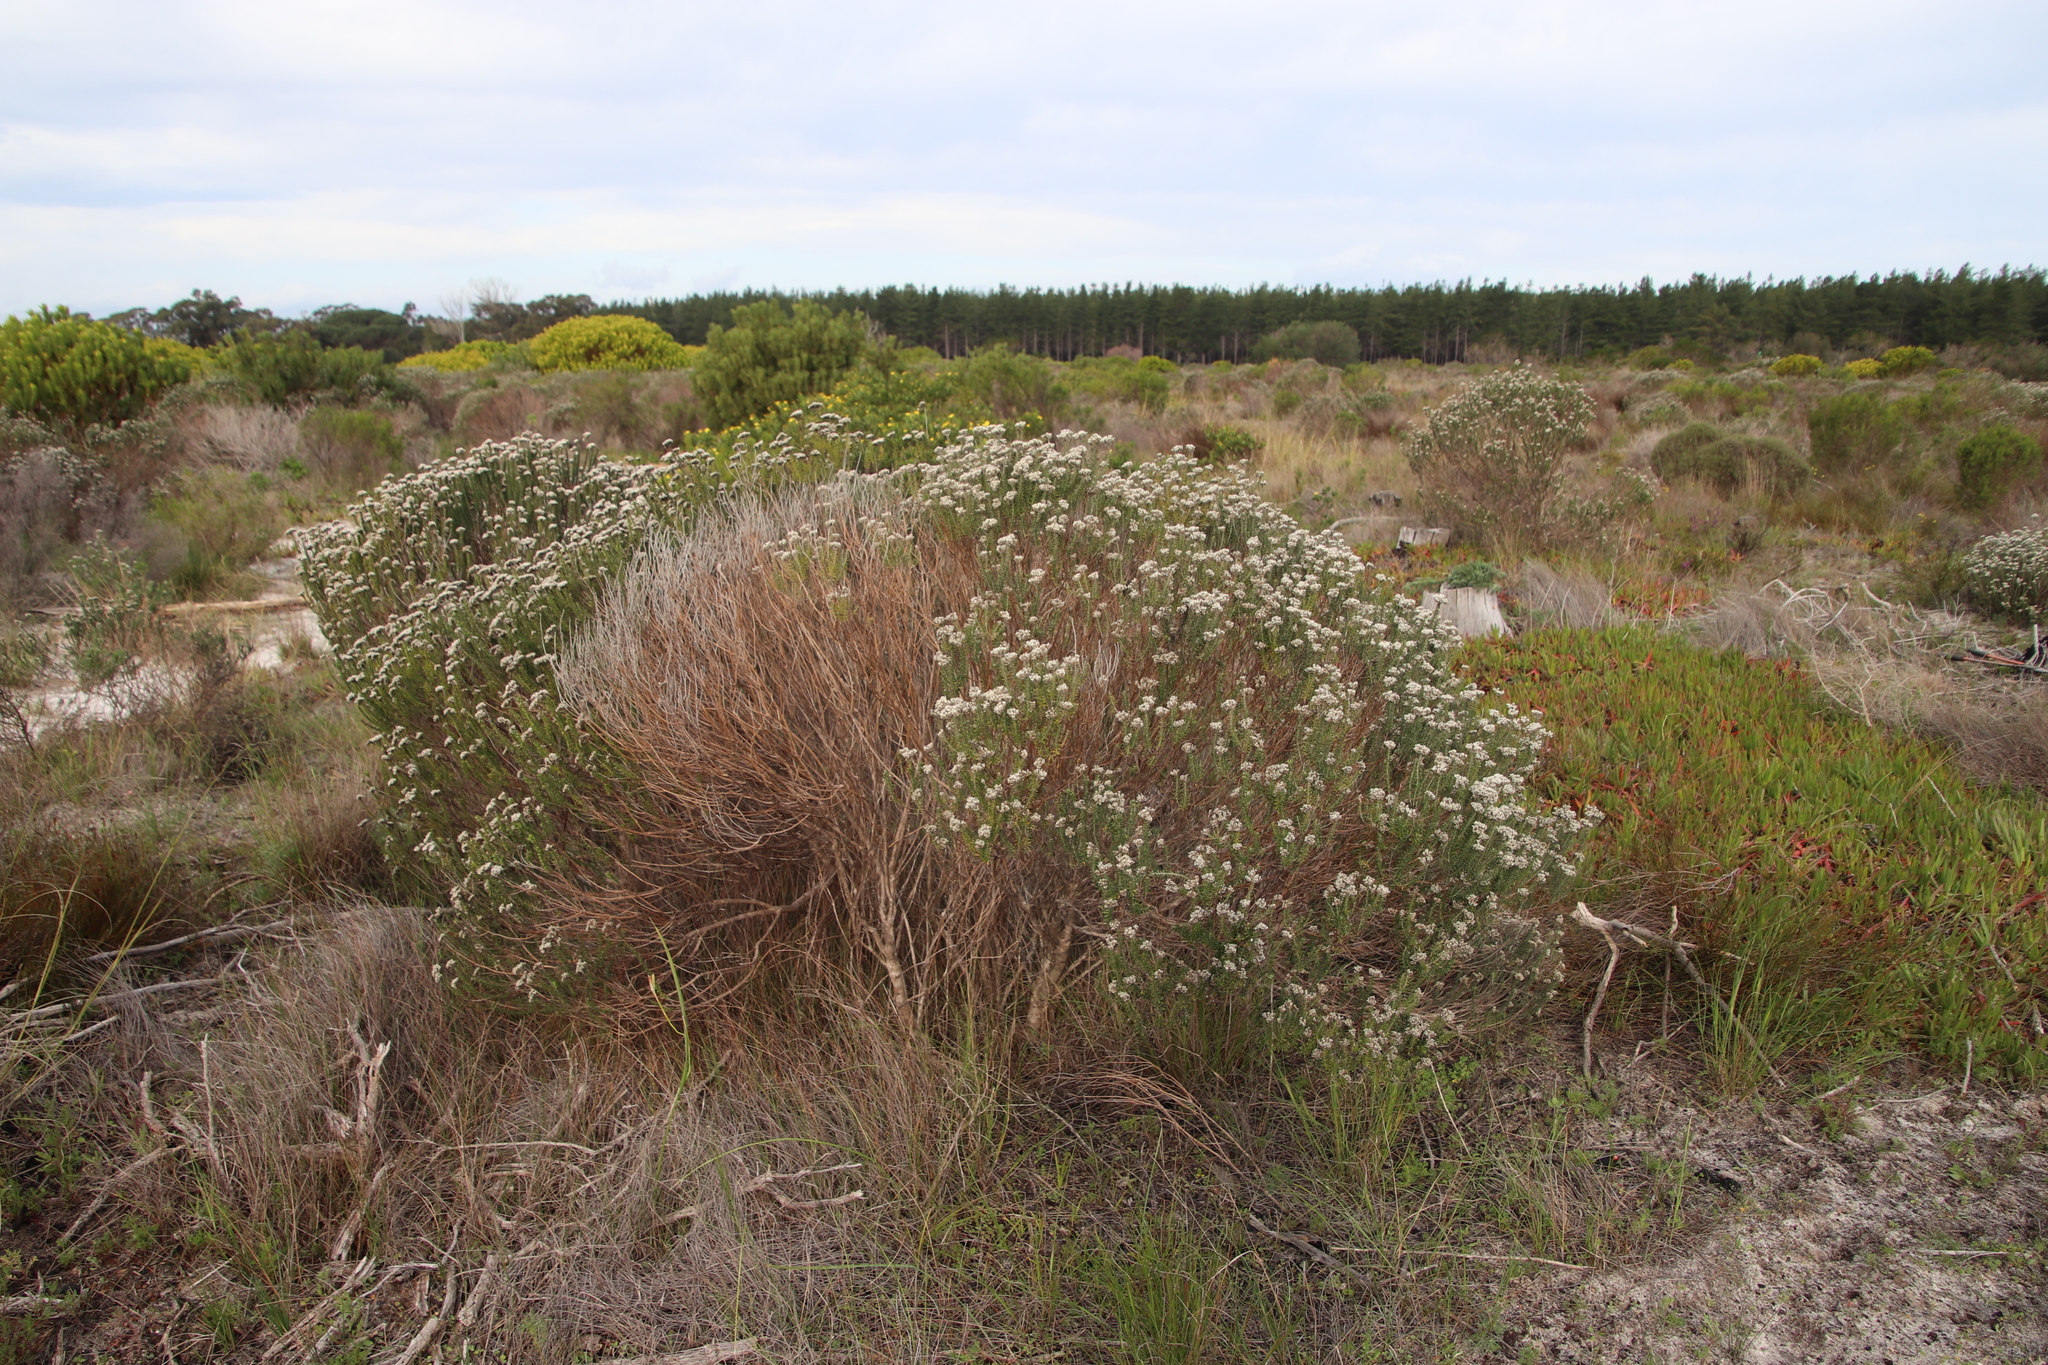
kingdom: Plantae
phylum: Tracheophyta
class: Magnoliopsida
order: Asterales
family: Asteraceae
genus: Metalasia
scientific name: Metalasia densa
